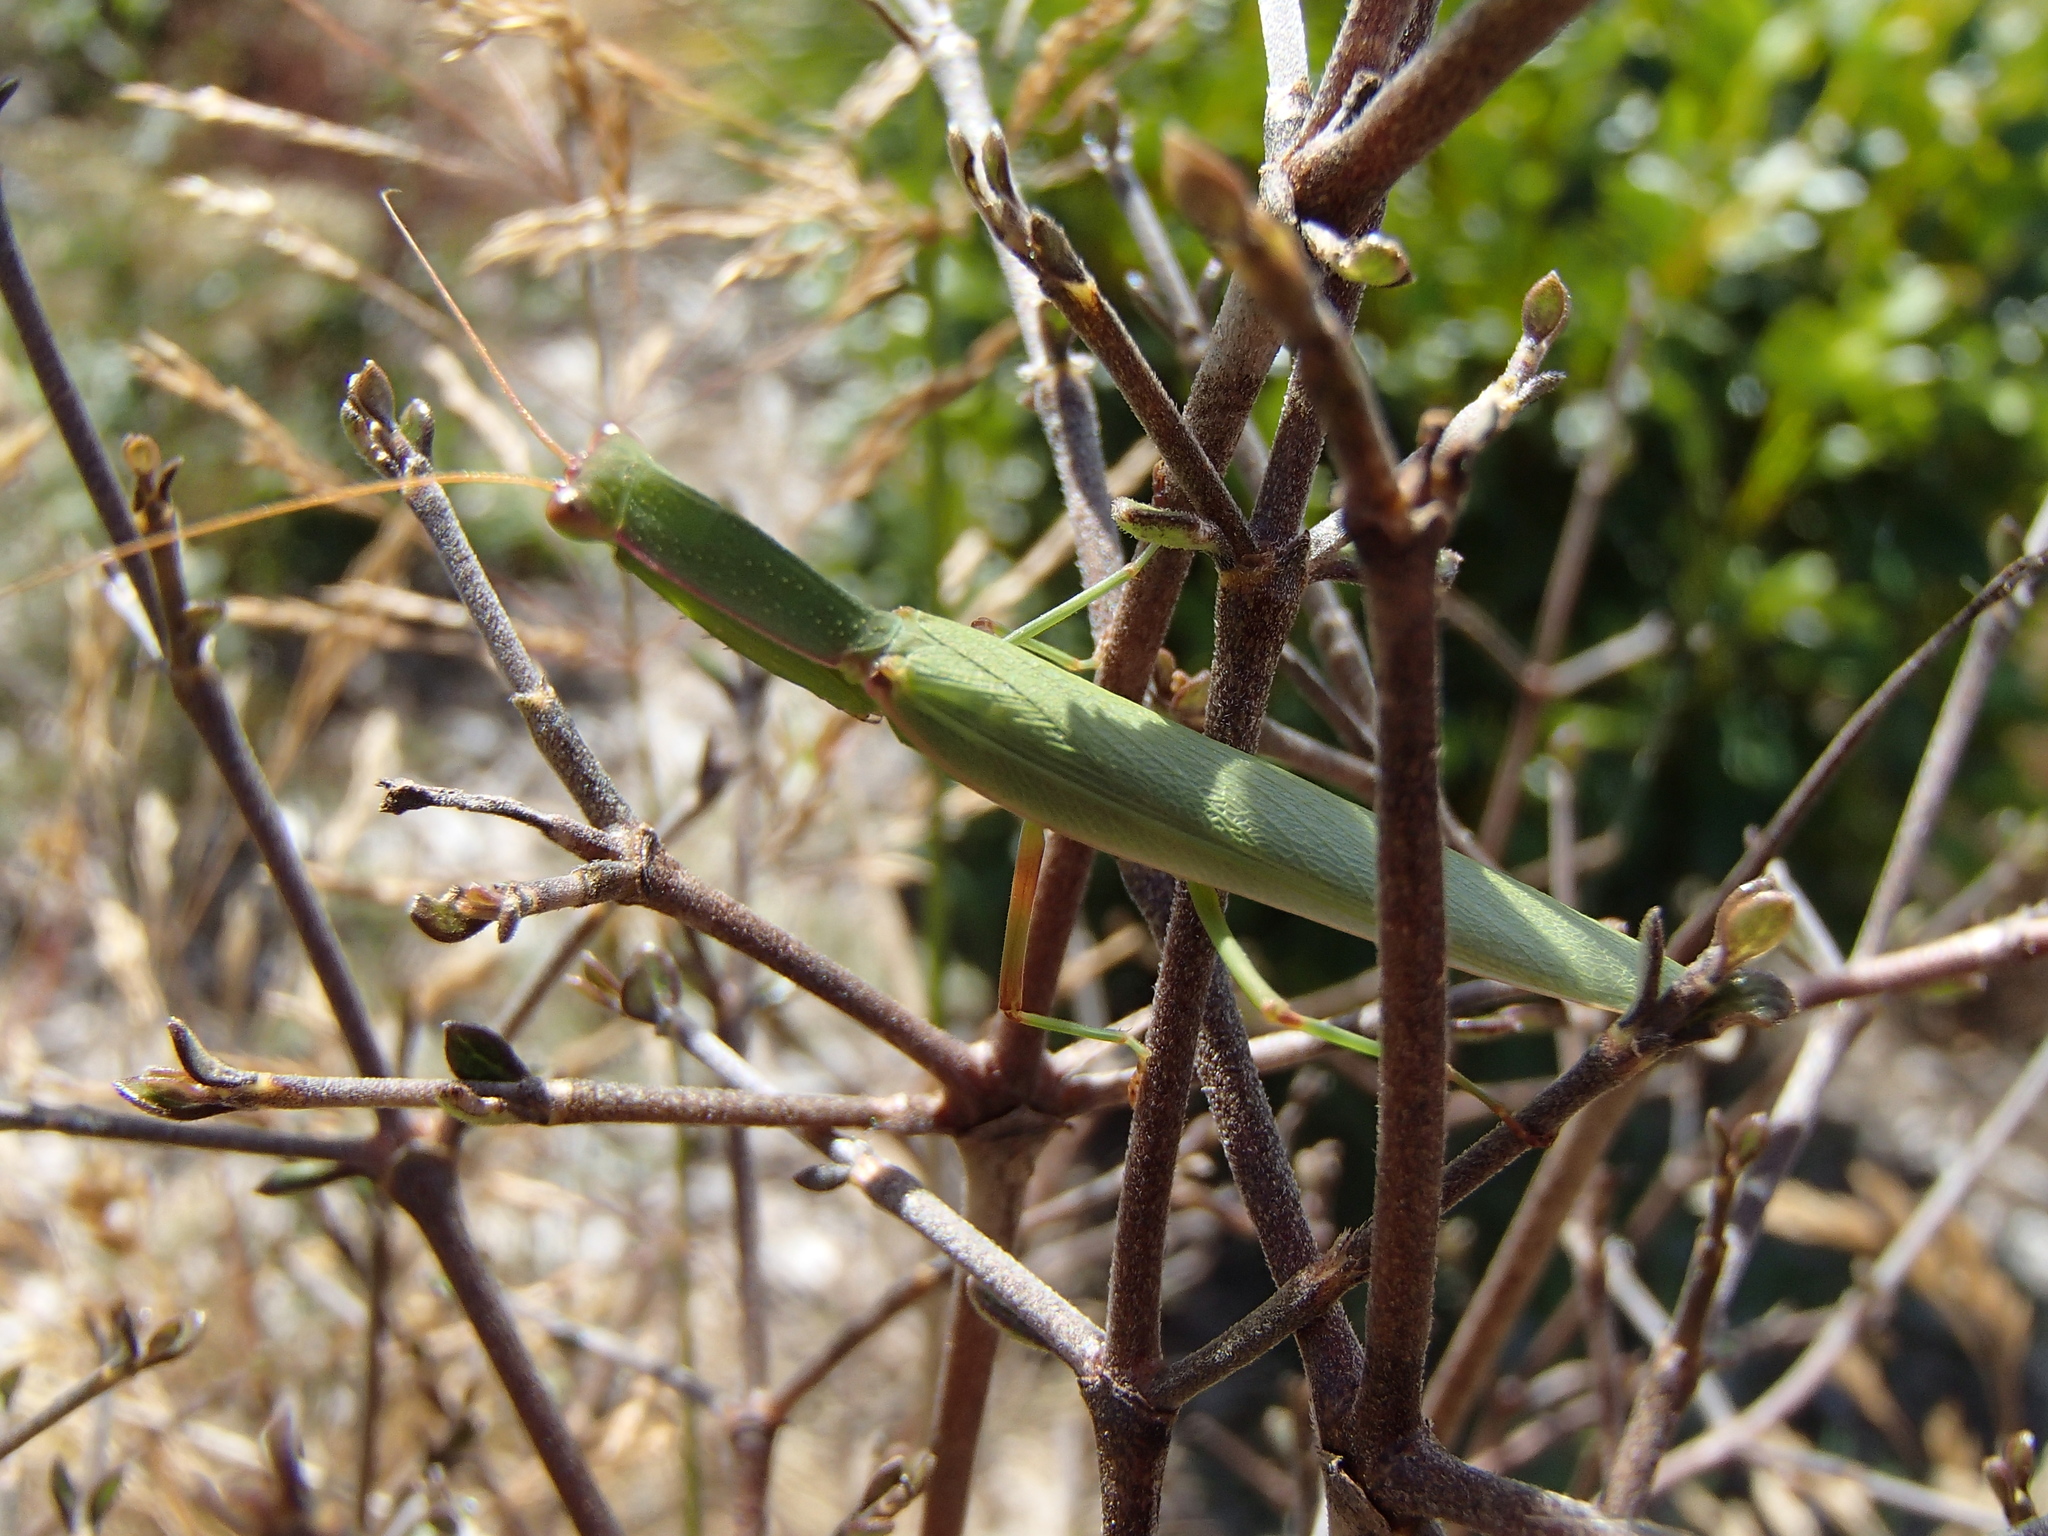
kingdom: Animalia
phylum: Arthropoda
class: Insecta
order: Mantodea
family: Mantidae
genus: Orthodera
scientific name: Orthodera novaezealandiae
